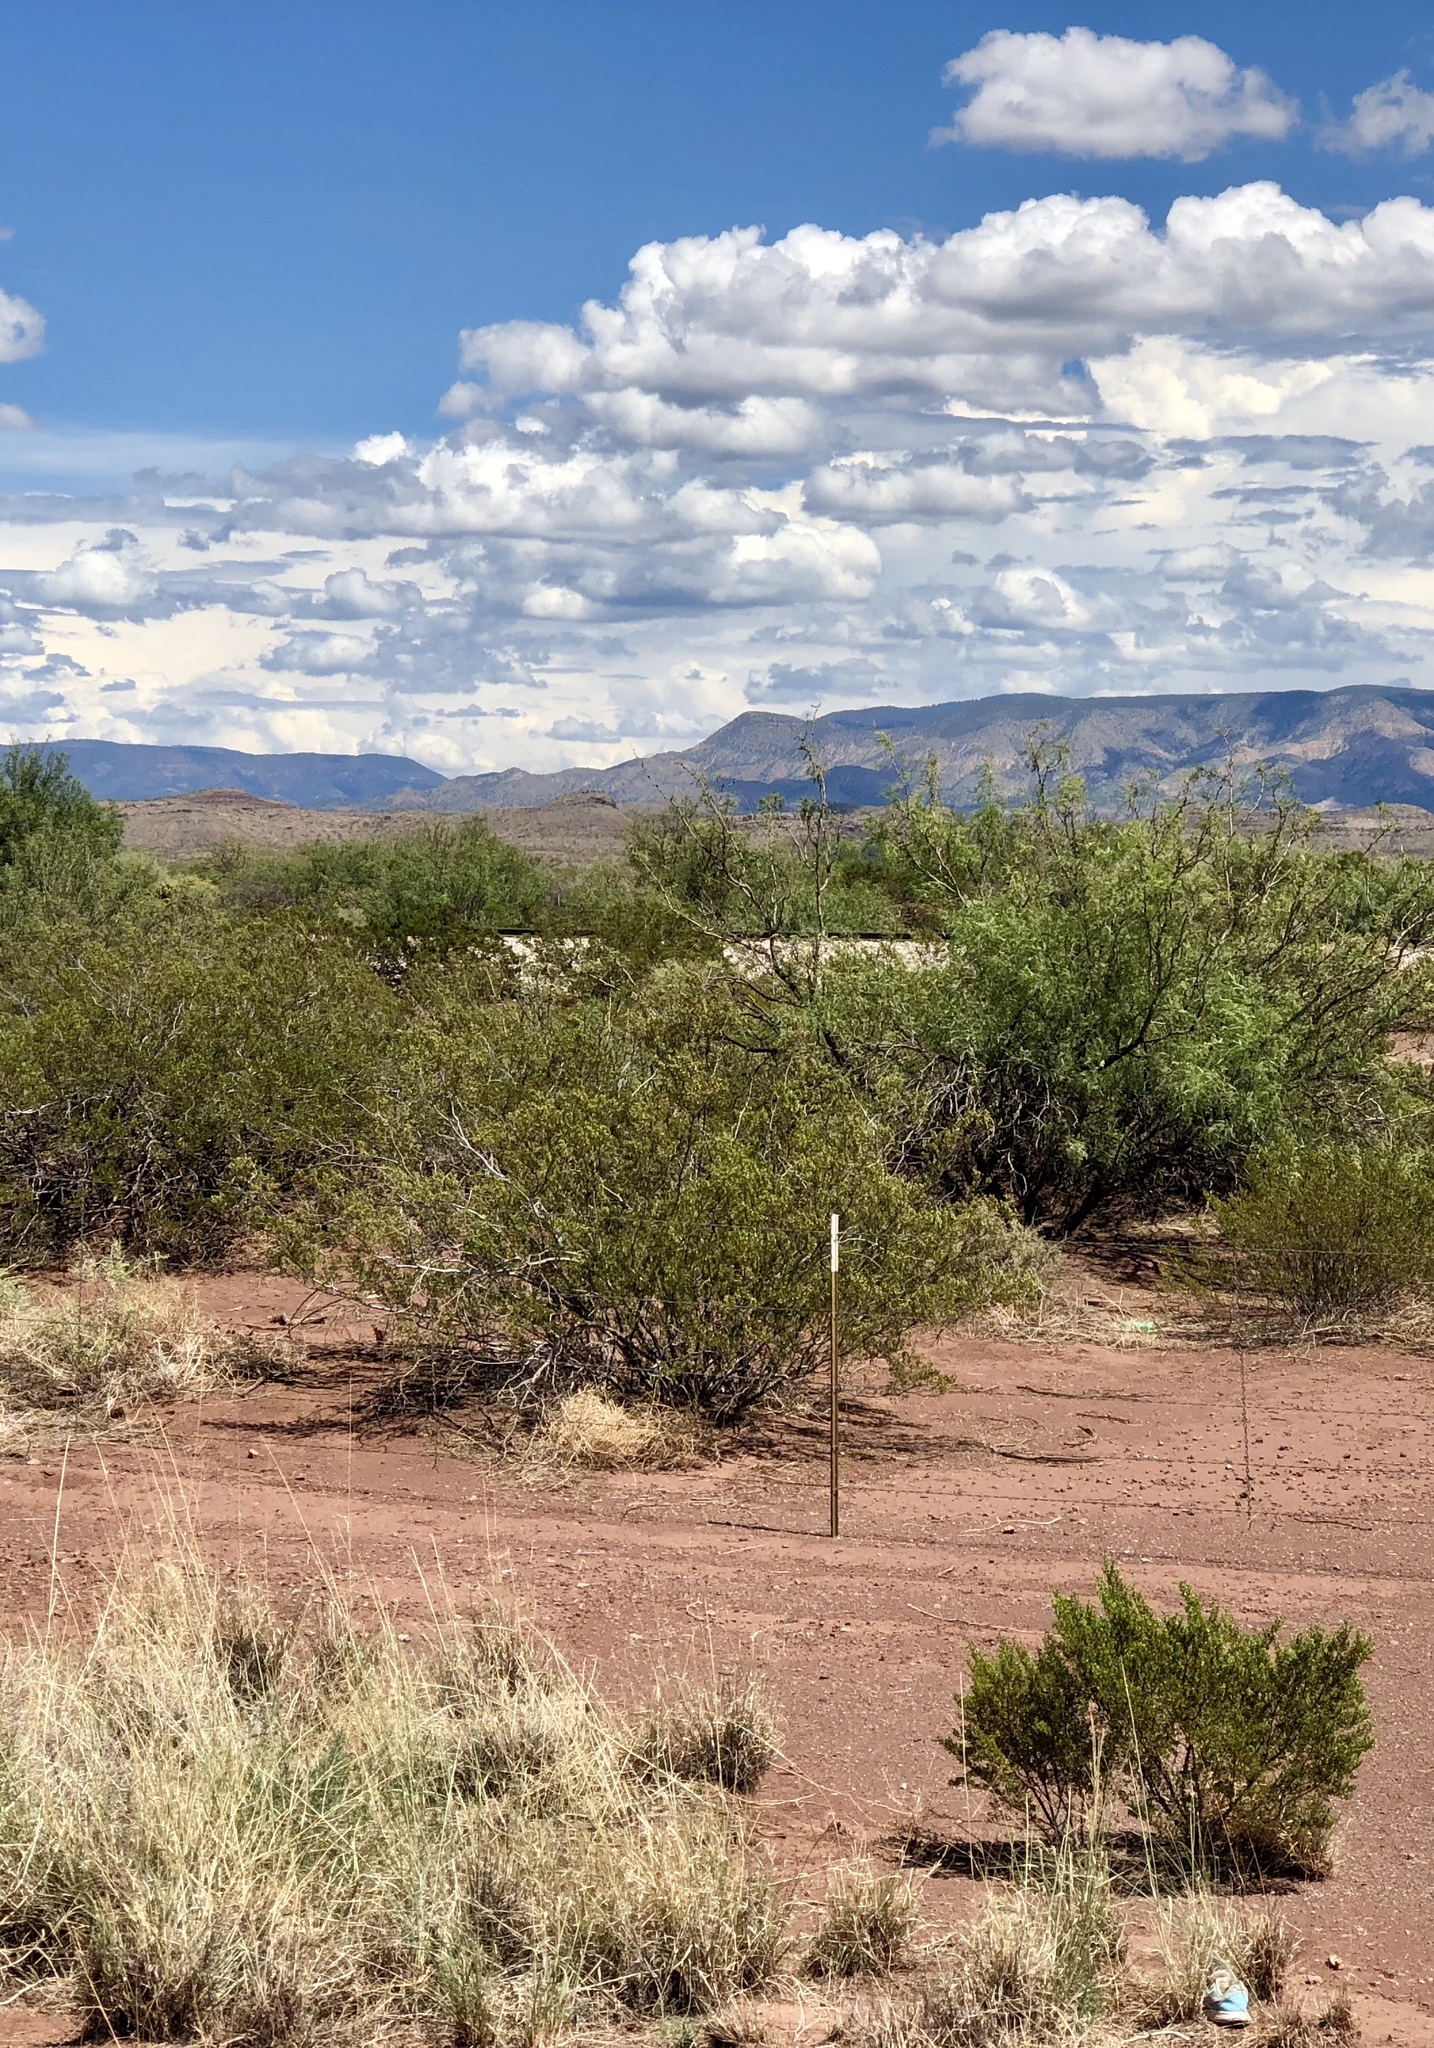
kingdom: Plantae
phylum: Tracheophyta
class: Magnoliopsida
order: Zygophyllales
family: Zygophyllaceae
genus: Larrea
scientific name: Larrea tridentata
